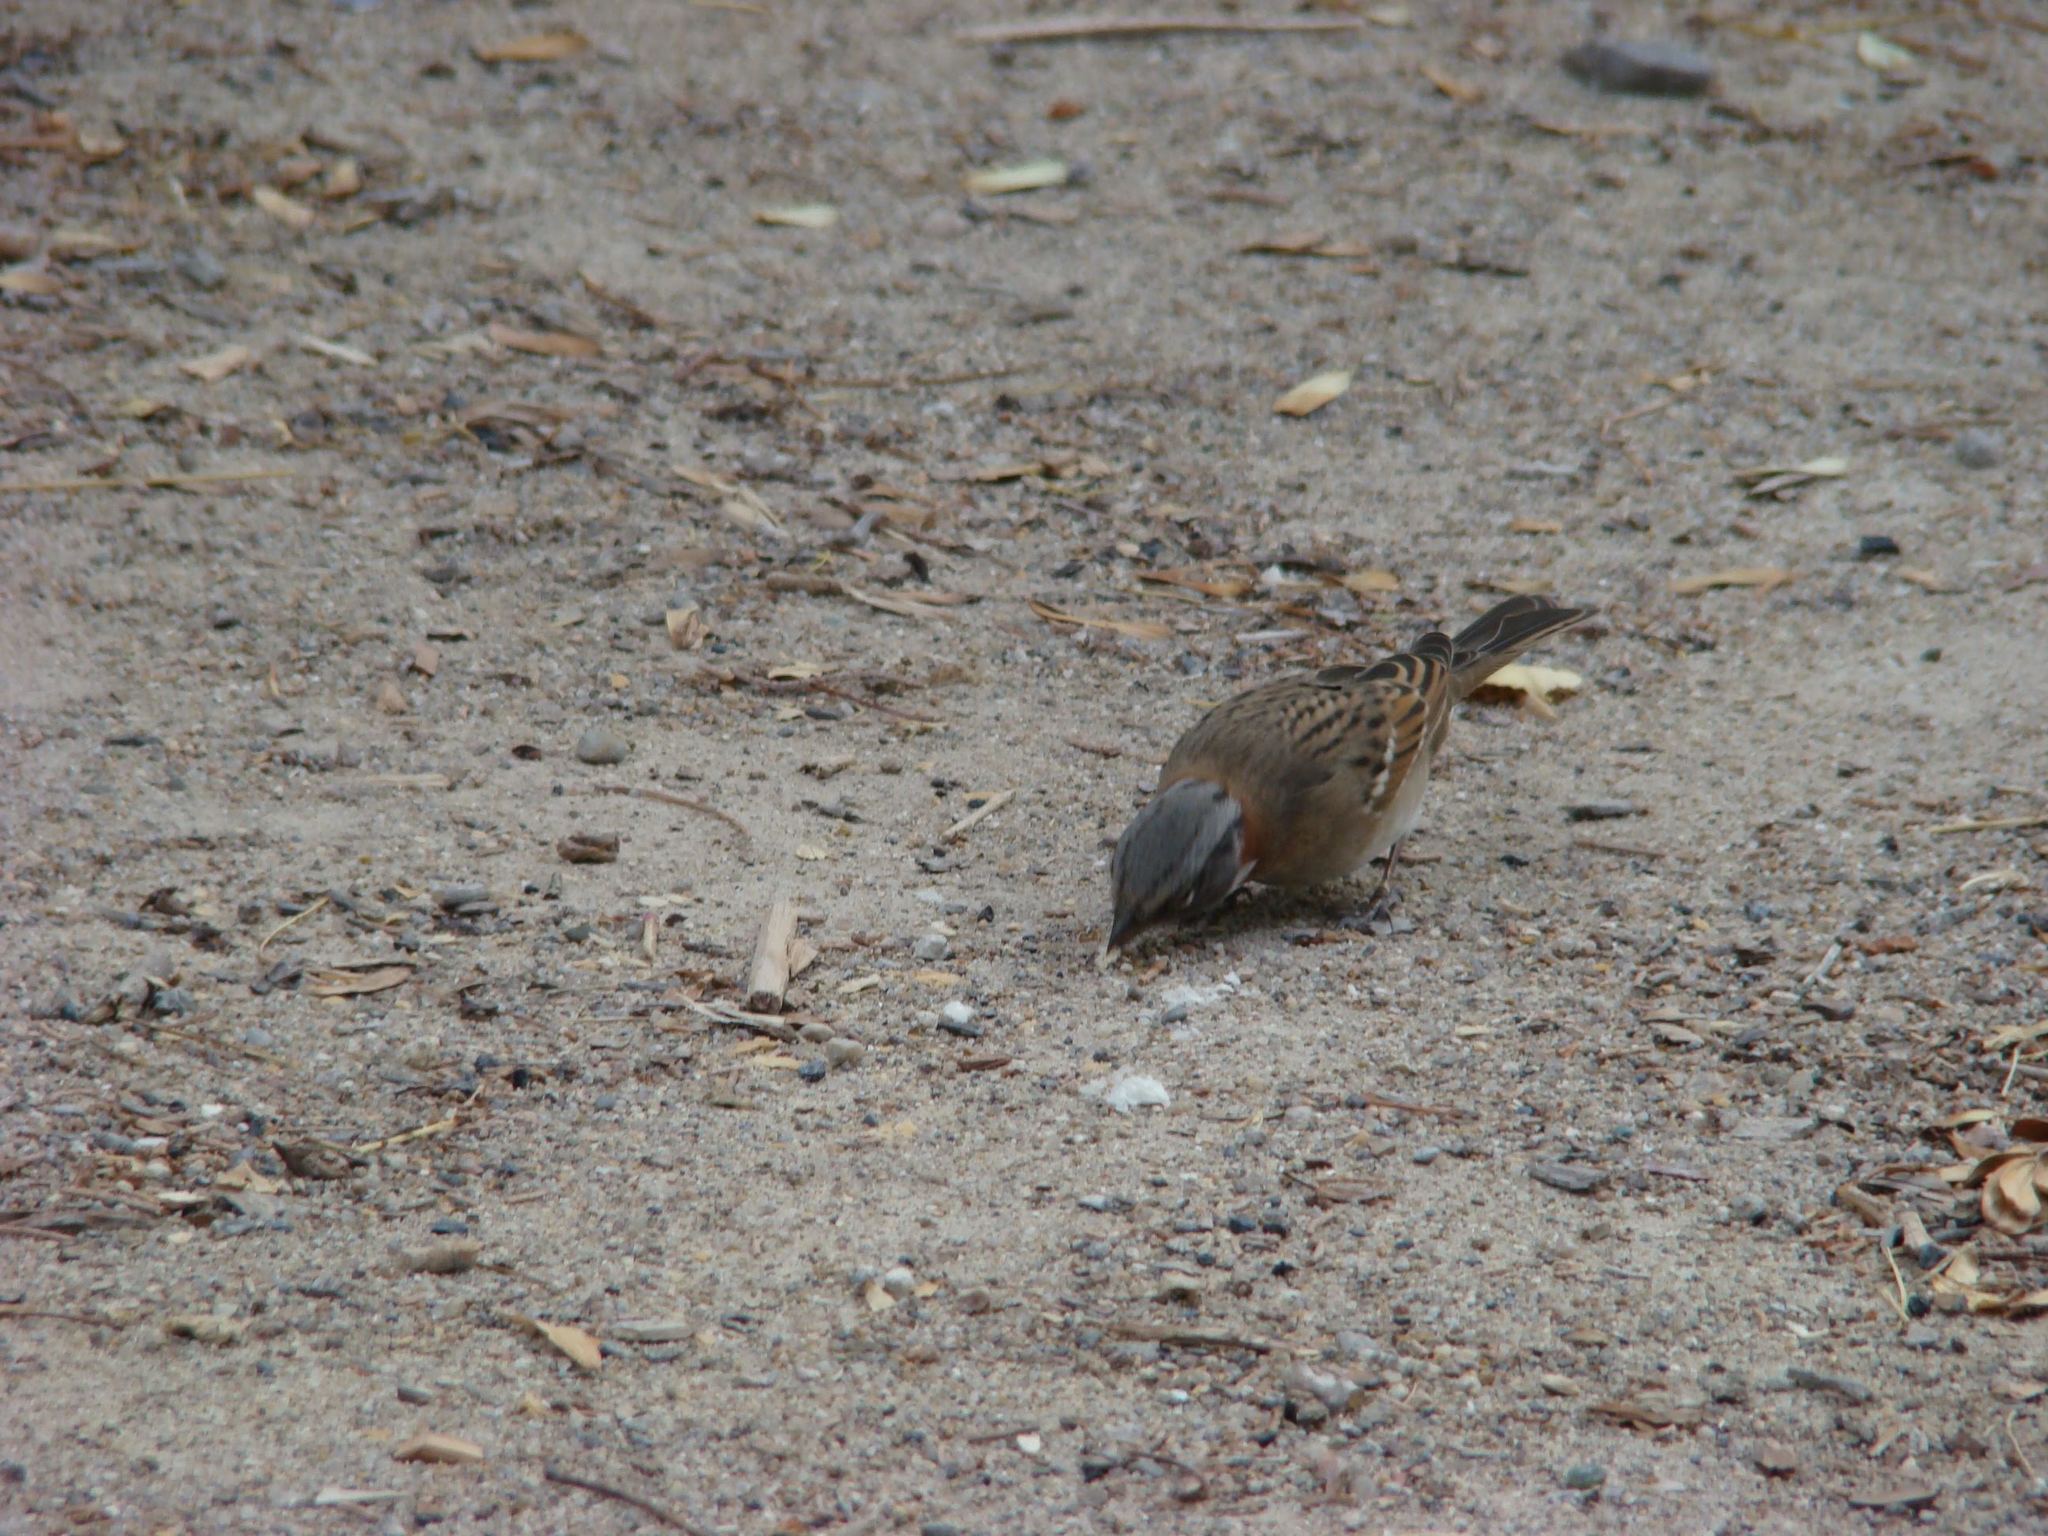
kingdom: Animalia
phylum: Chordata
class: Aves
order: Passeriformes
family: Passerellidae
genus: Zonotrichia
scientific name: Zonotrichia capensis
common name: Rufous-collared sparrow
